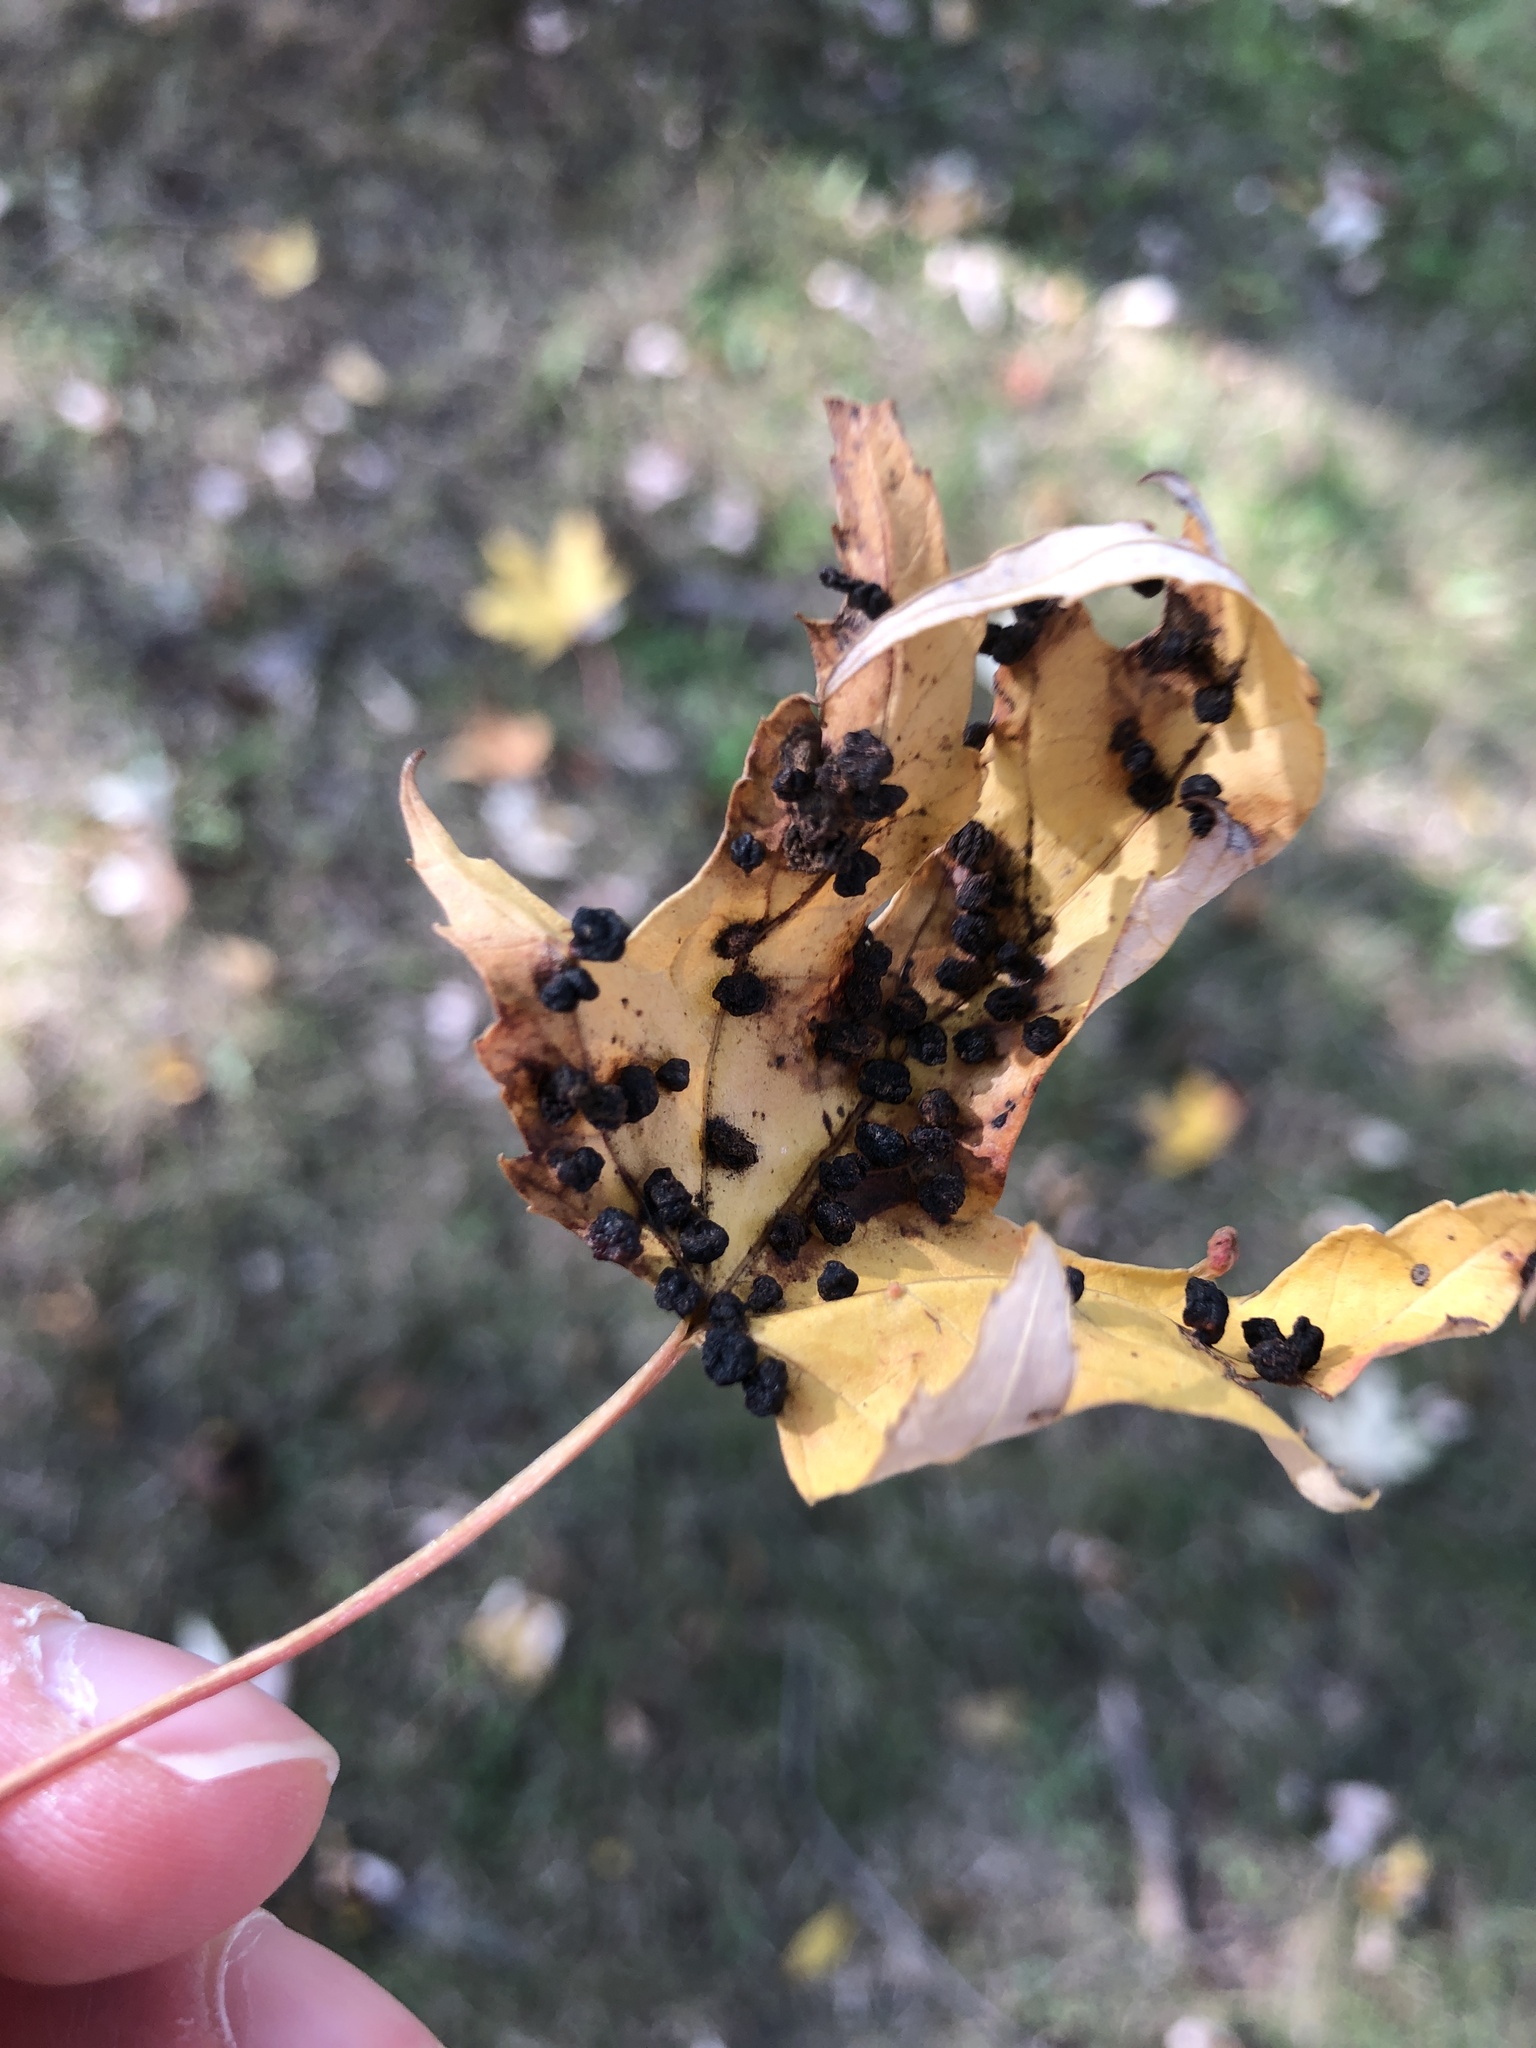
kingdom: Animalia
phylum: Arthropoda
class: Arachnida
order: Trombidiformes
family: Eriophyidae
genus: Vasates
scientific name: Vasates quadripedes
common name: Maple bladder gall mite
